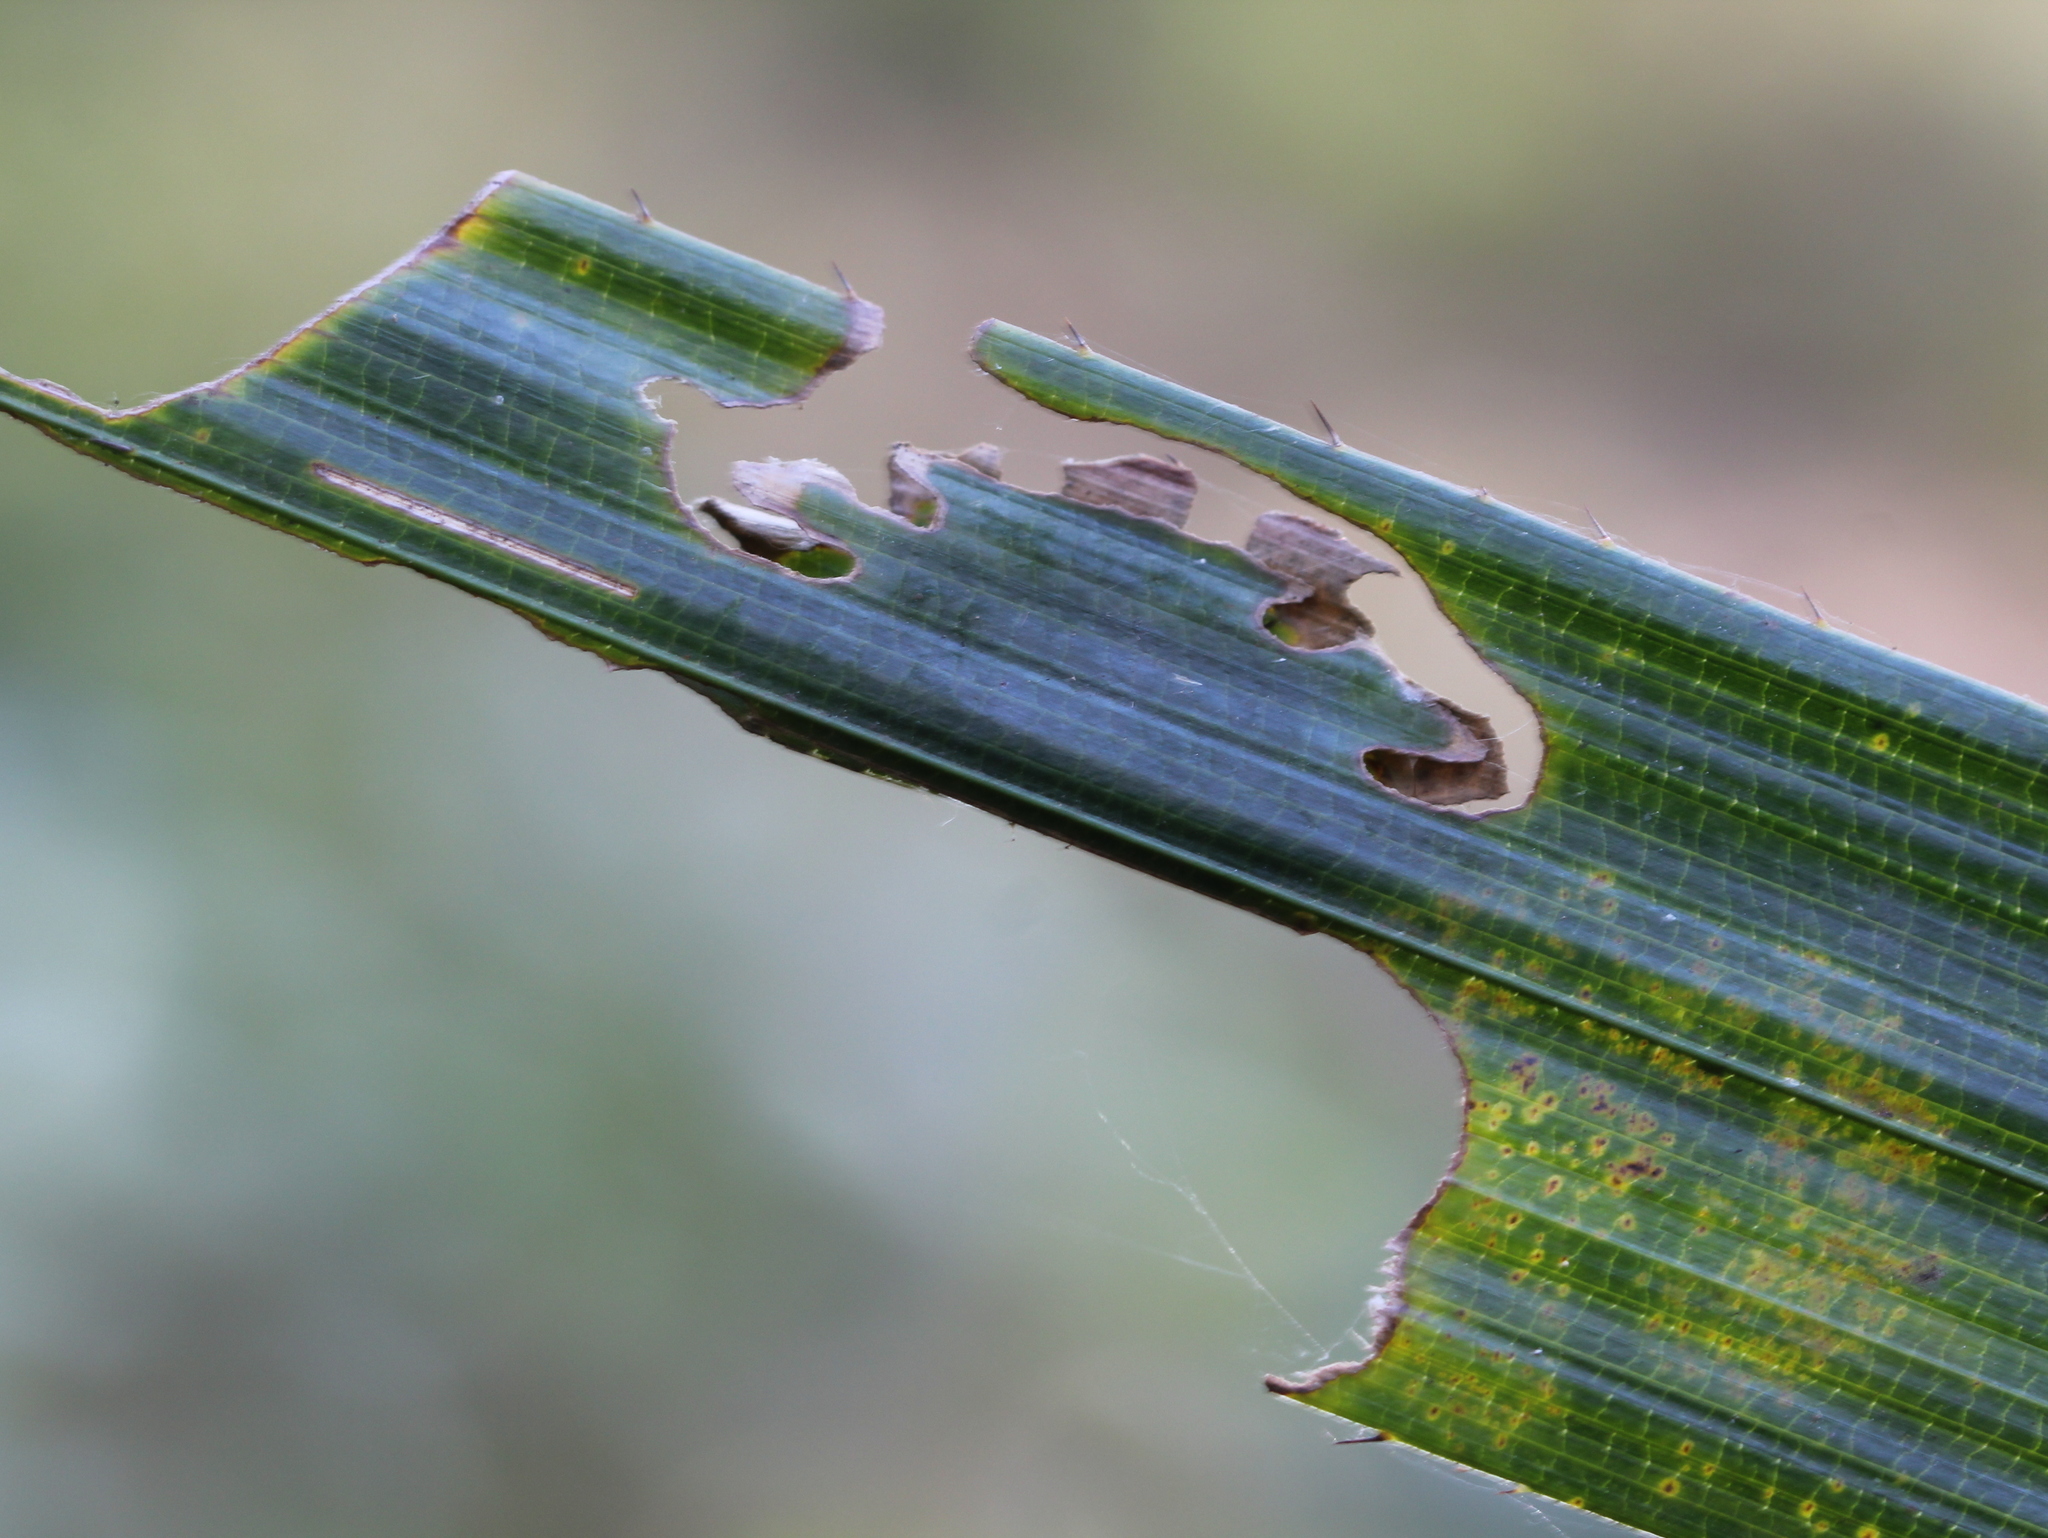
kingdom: Animalia
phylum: Arthropoda
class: Insecta
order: Lepidoptera
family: Hesperiidae
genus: Salanoemia
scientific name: Salanoemia sala
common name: Maculate lancer
